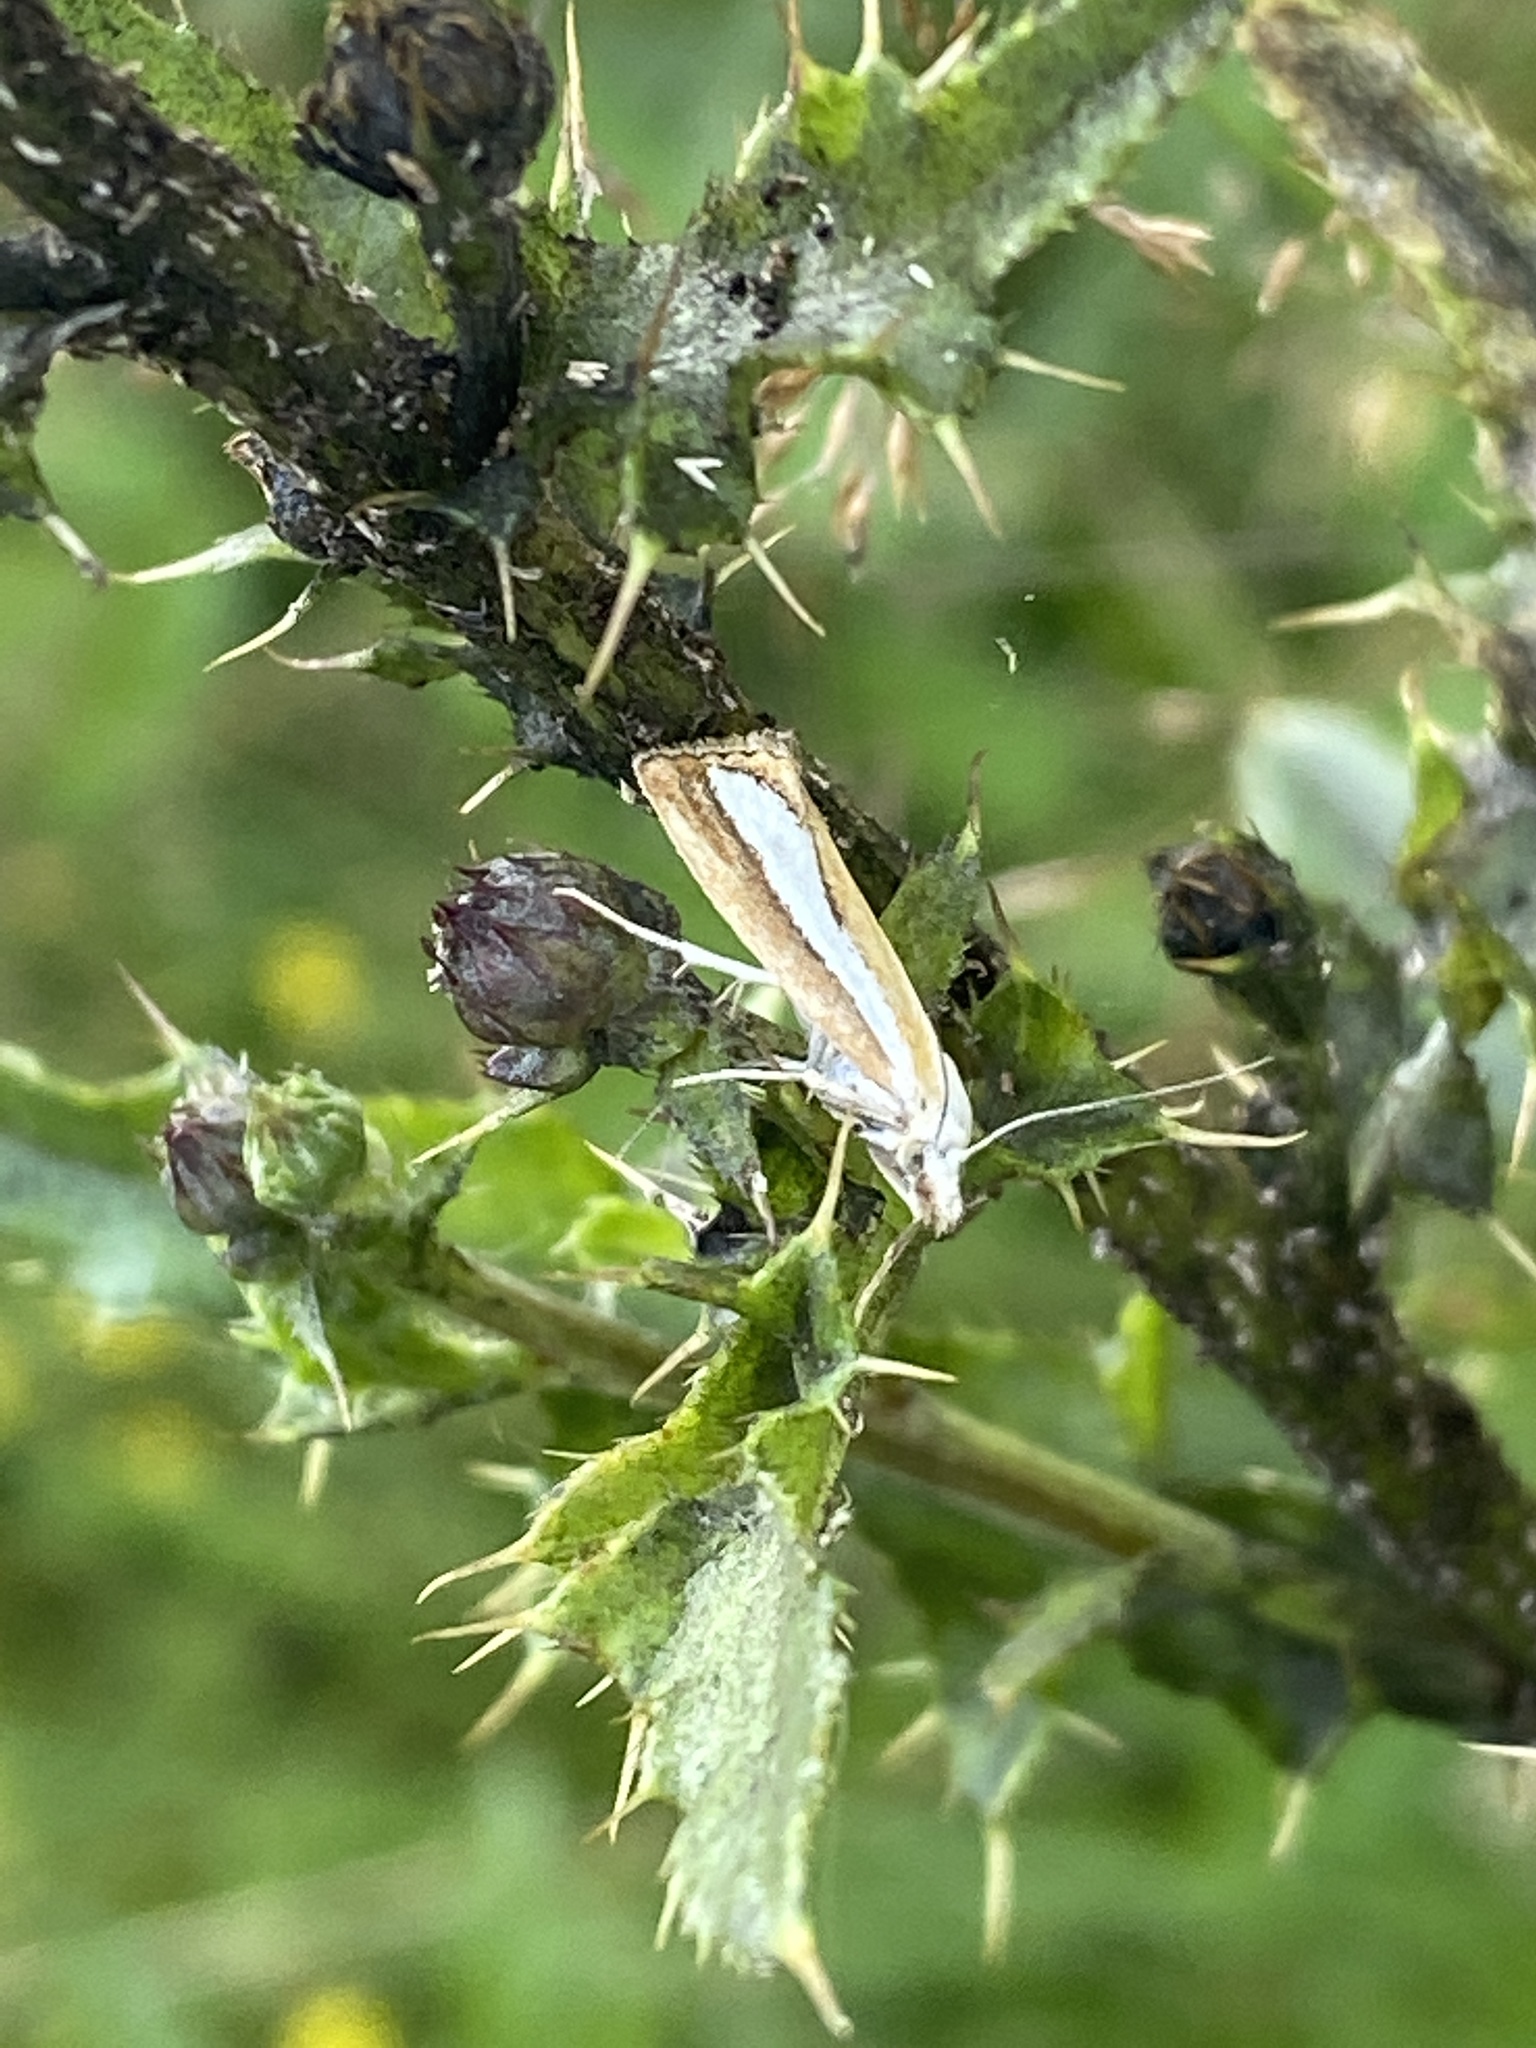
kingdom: Animalia
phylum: Arthropoda
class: Insecta
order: Lepidoptera
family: Crambidae
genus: Catoptria
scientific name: Catoptria margaritellus
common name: Pearl-band grass veneer
